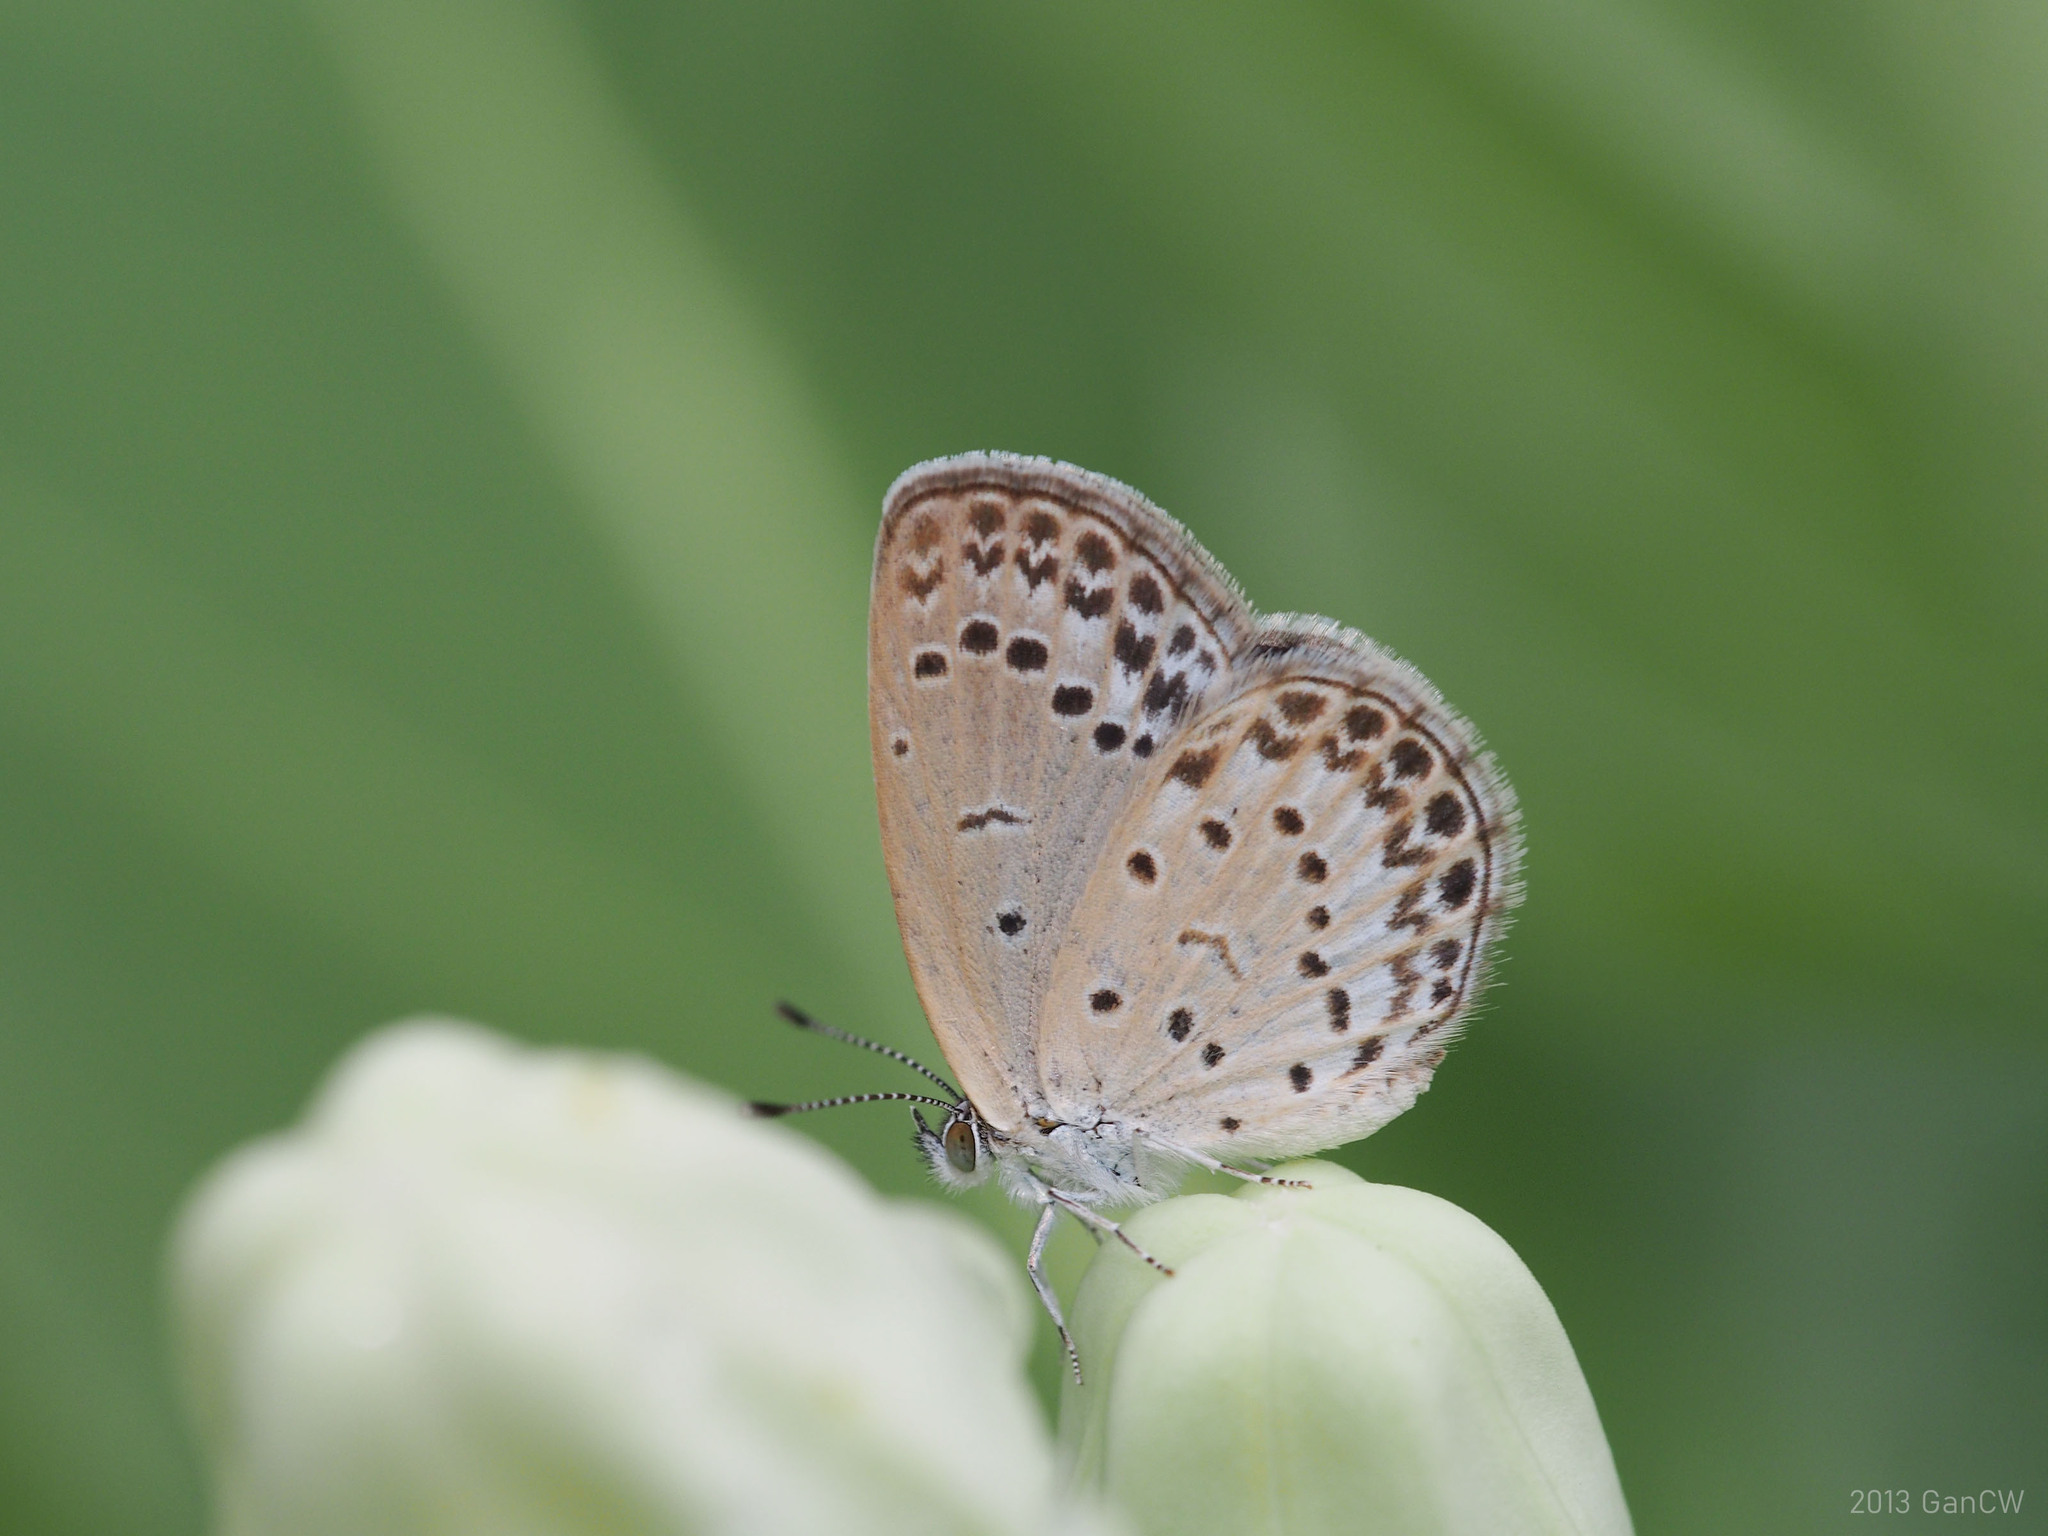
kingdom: Animalia
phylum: Arthropoda
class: Insecta
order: Lepidoptera
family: Lycaenidae
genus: Pseudozizeeria
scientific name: Pseudozizeeria maha
